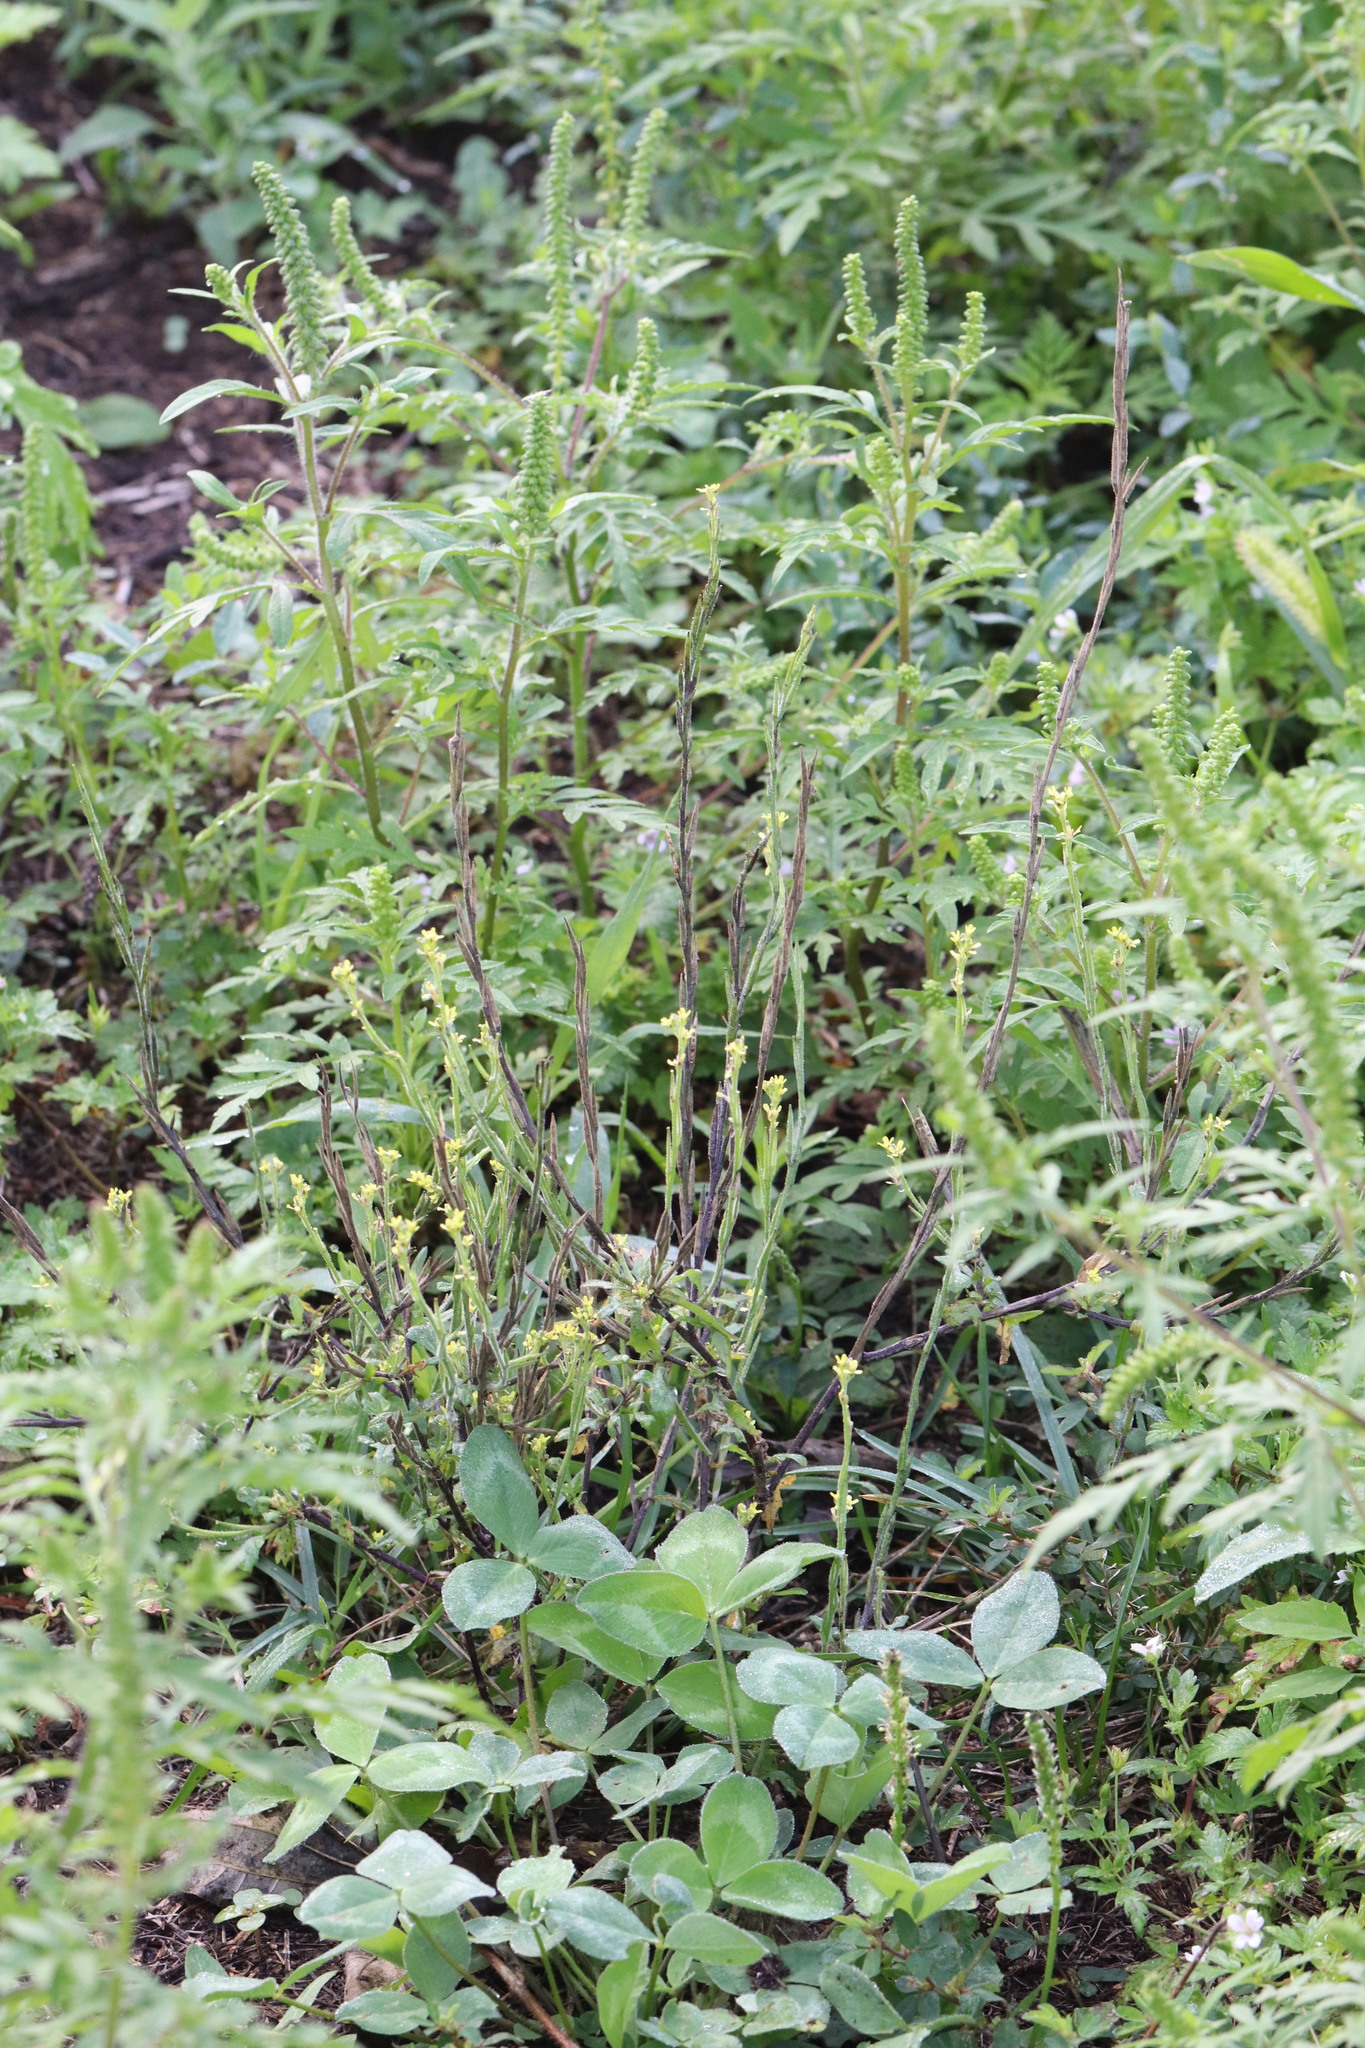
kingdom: Plantae
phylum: Tracheophyta
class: Magnoliopsida
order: Asterales
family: Asteraceae
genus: Ambrosia
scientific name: Ambrosia artemisiifolia
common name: Annual ragweed
